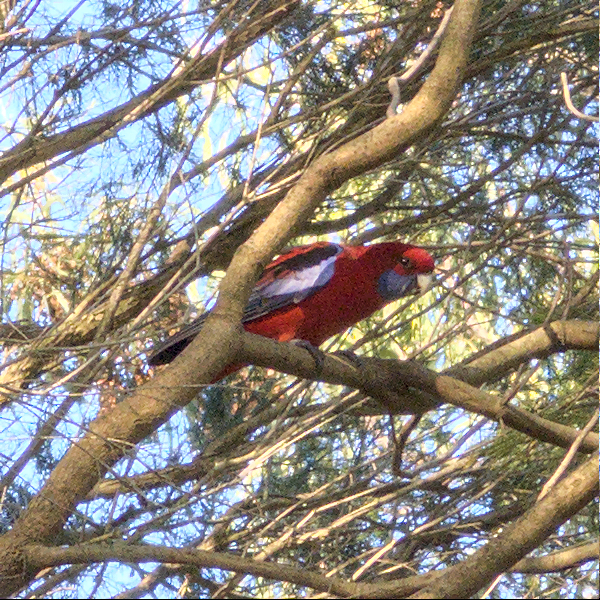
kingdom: Animalia
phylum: Chordata
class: Aves
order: Psittaciformes
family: Psittacidae
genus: Platycercus
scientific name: Platycercus elegans
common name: Crimson rosella
